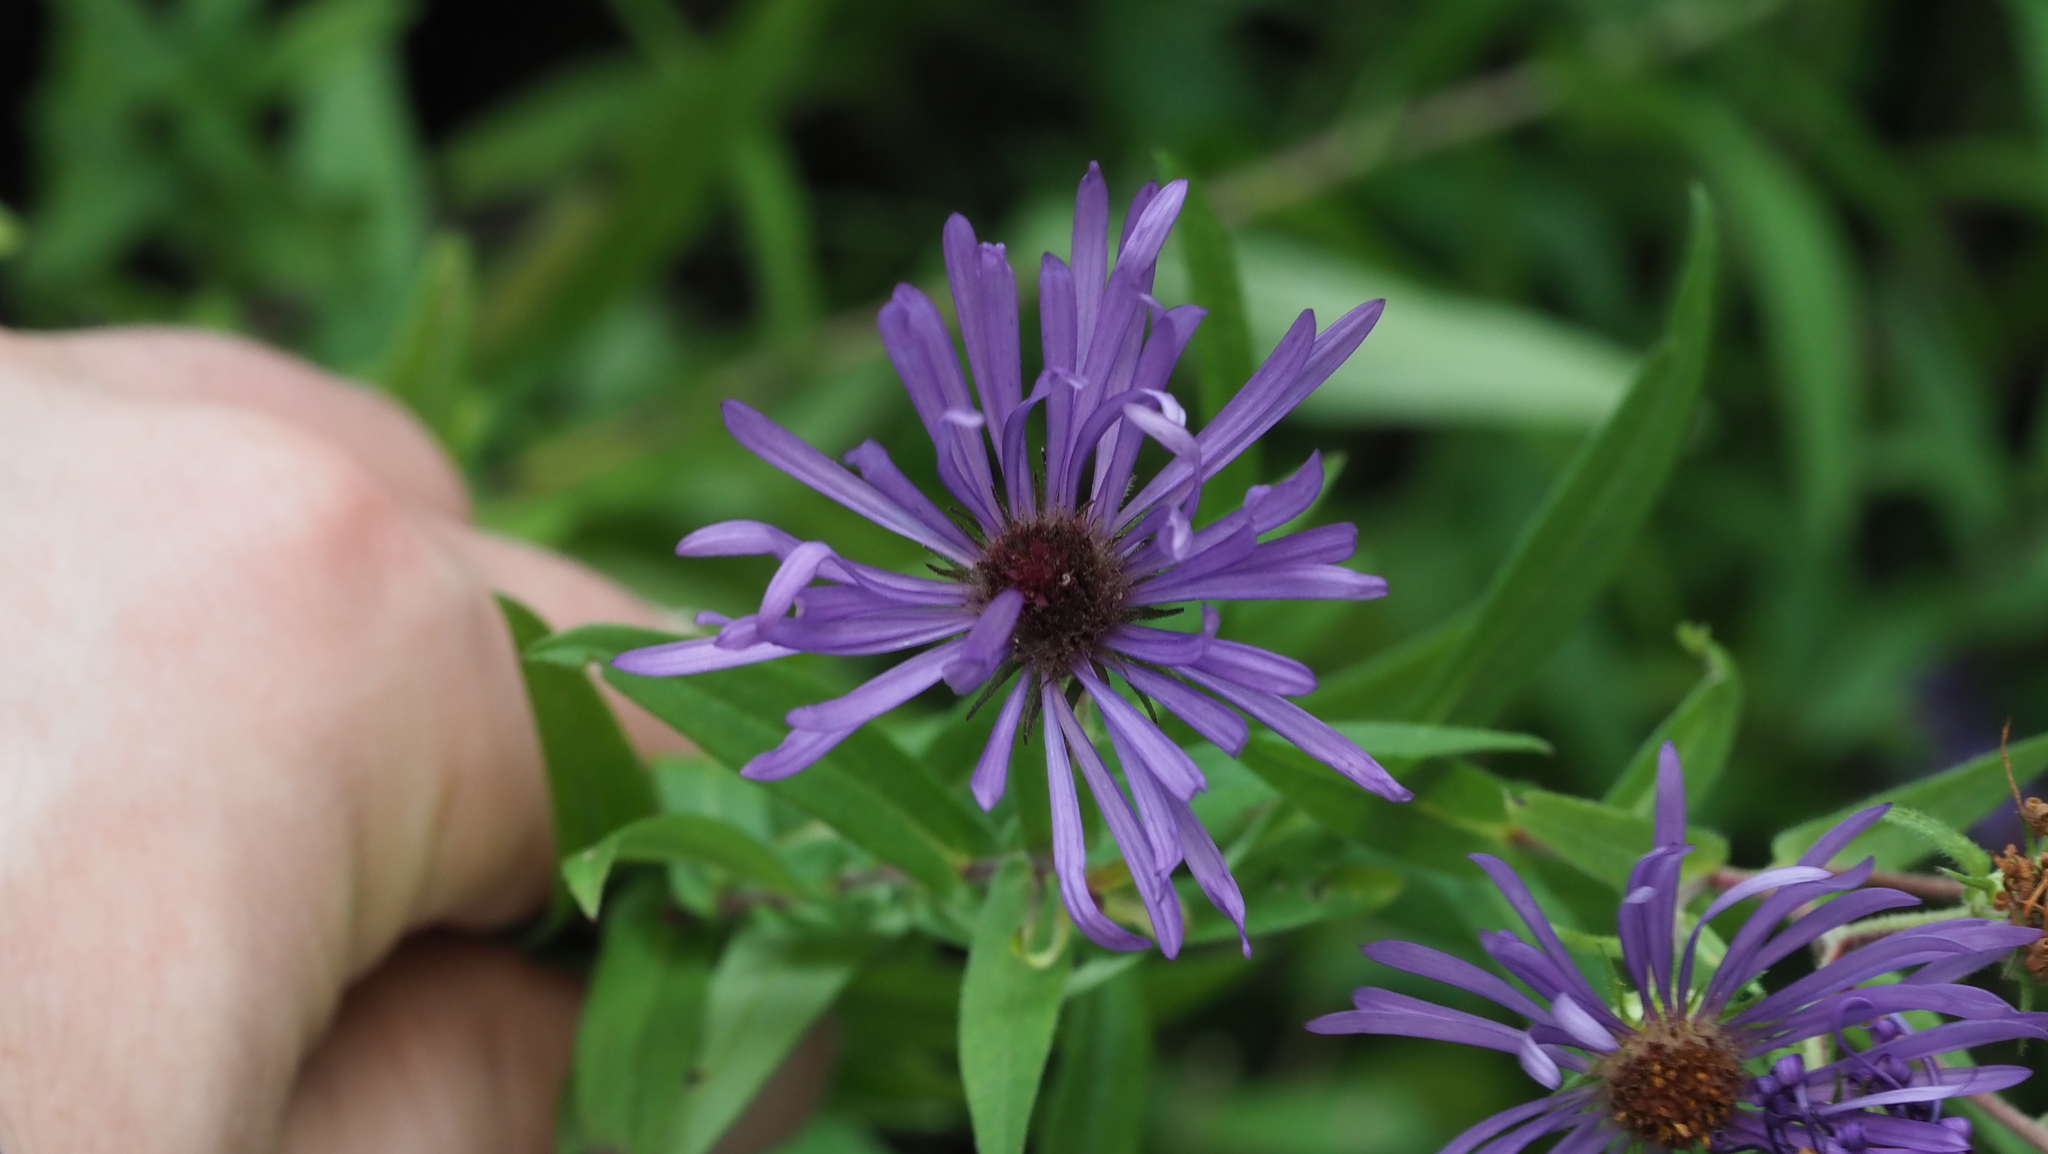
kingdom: Plantae
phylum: Tracheophyta
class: Magnoliopsida
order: Asterales
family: Asteraceae
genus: Symphyotrichum
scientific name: Symphyotrichum novae-angliae
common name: Michaelmas daisy
